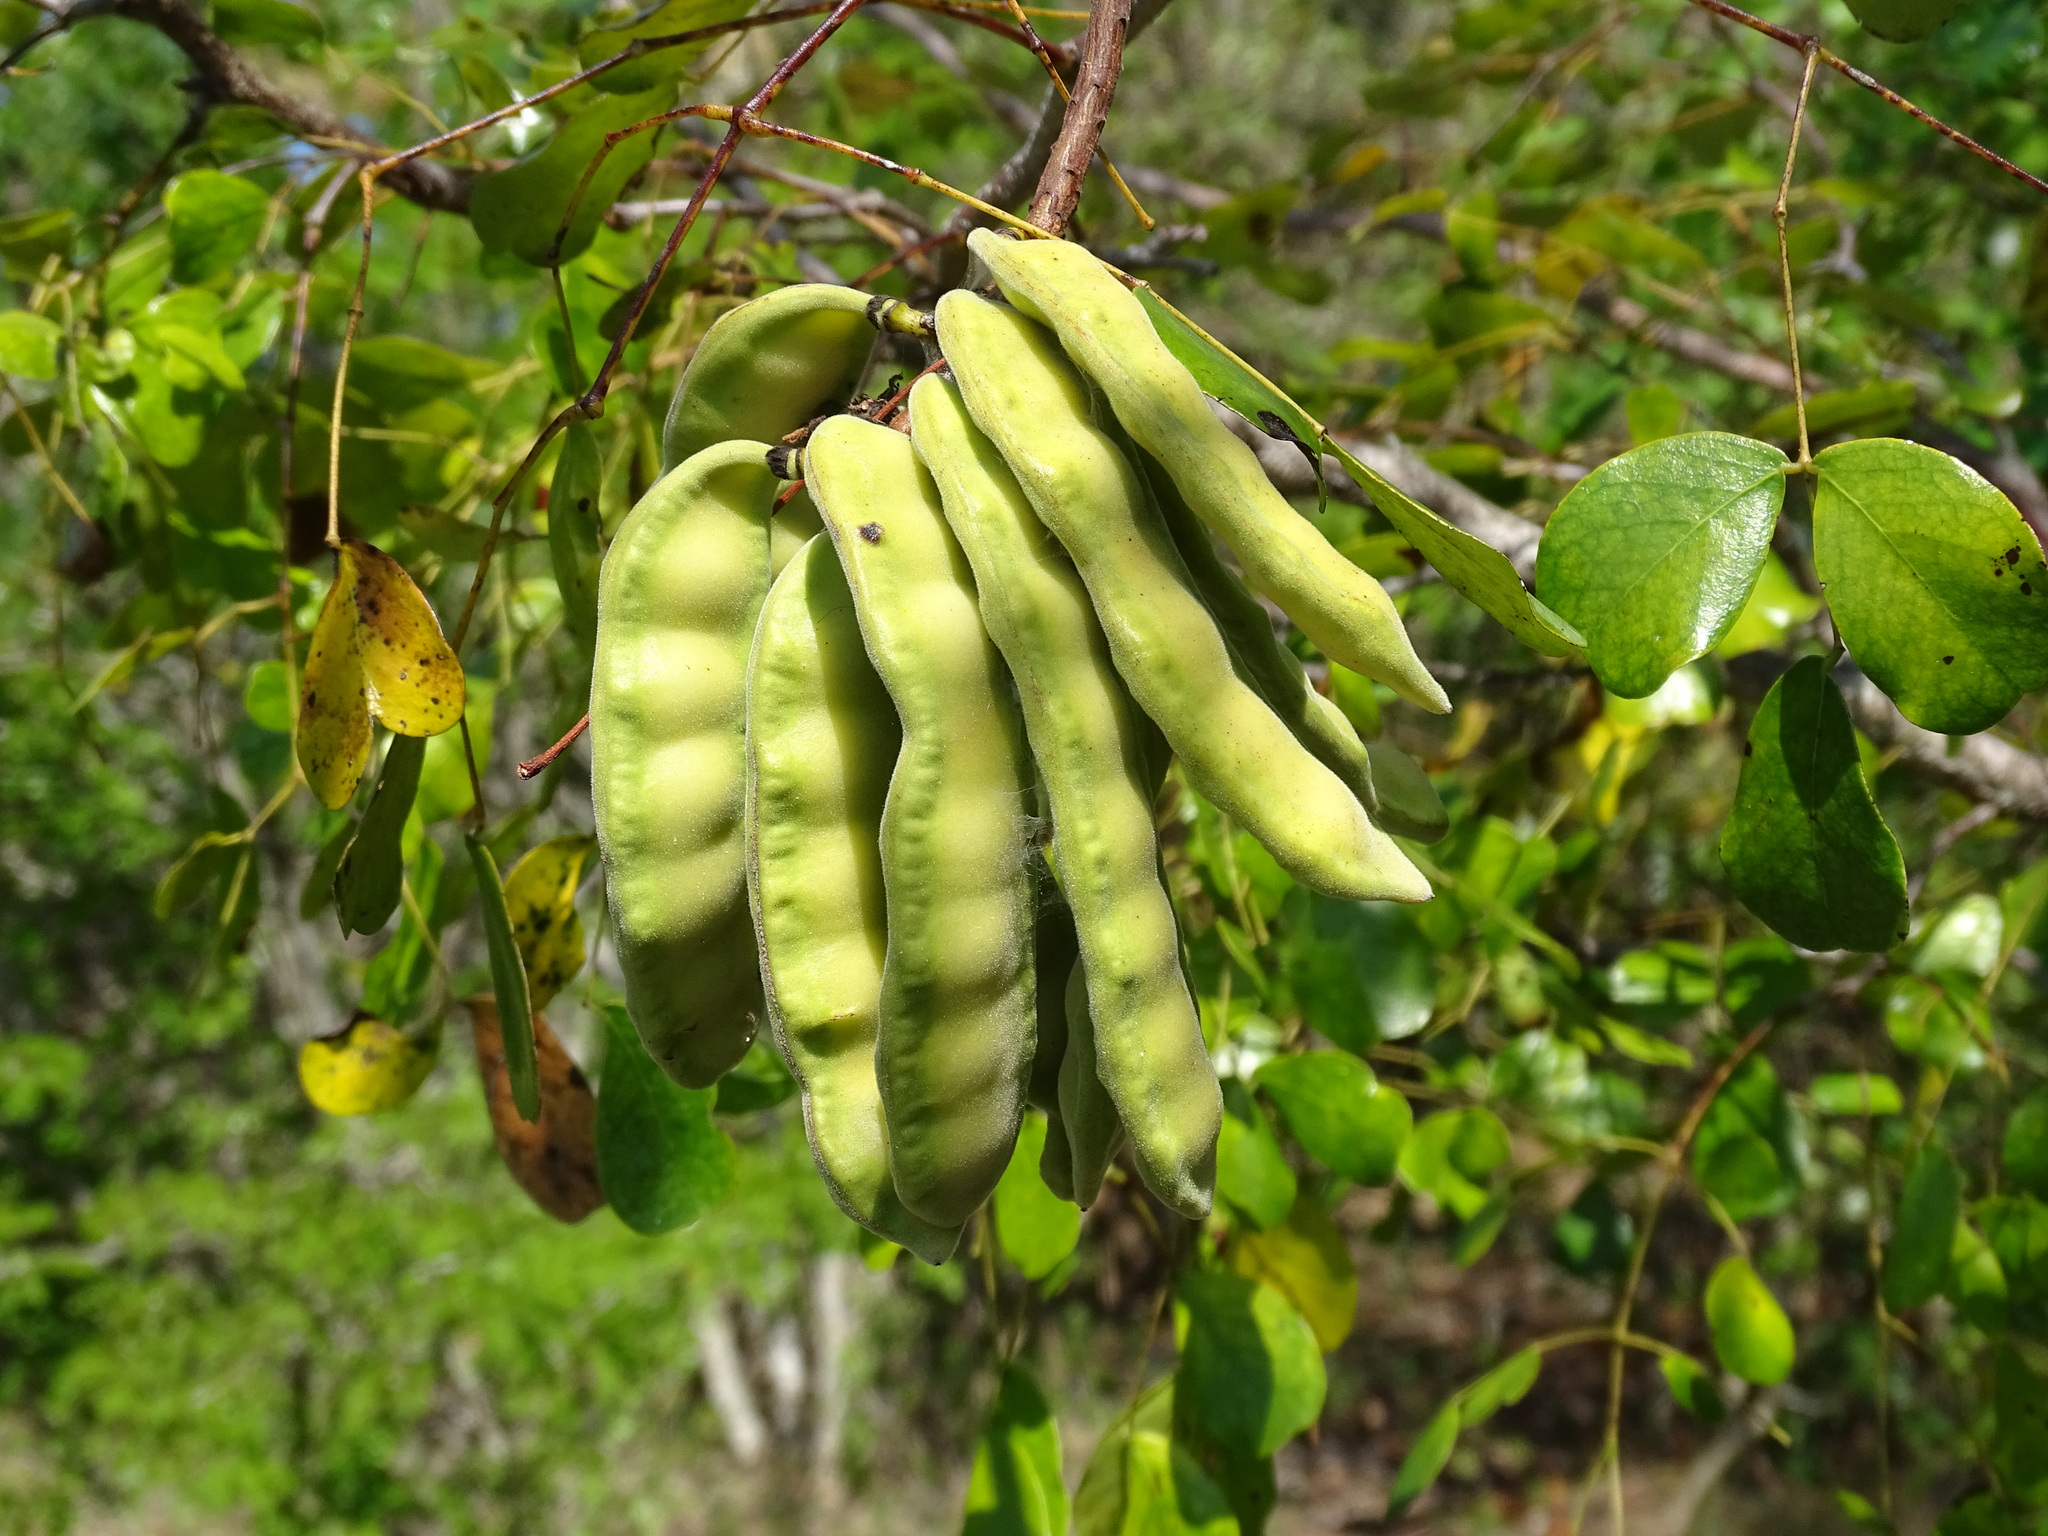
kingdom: Plantae
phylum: Tracheophyta
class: Magnoliopsida
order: Fabales
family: Fabaceae
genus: Tara
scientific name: Tara vesicaria
